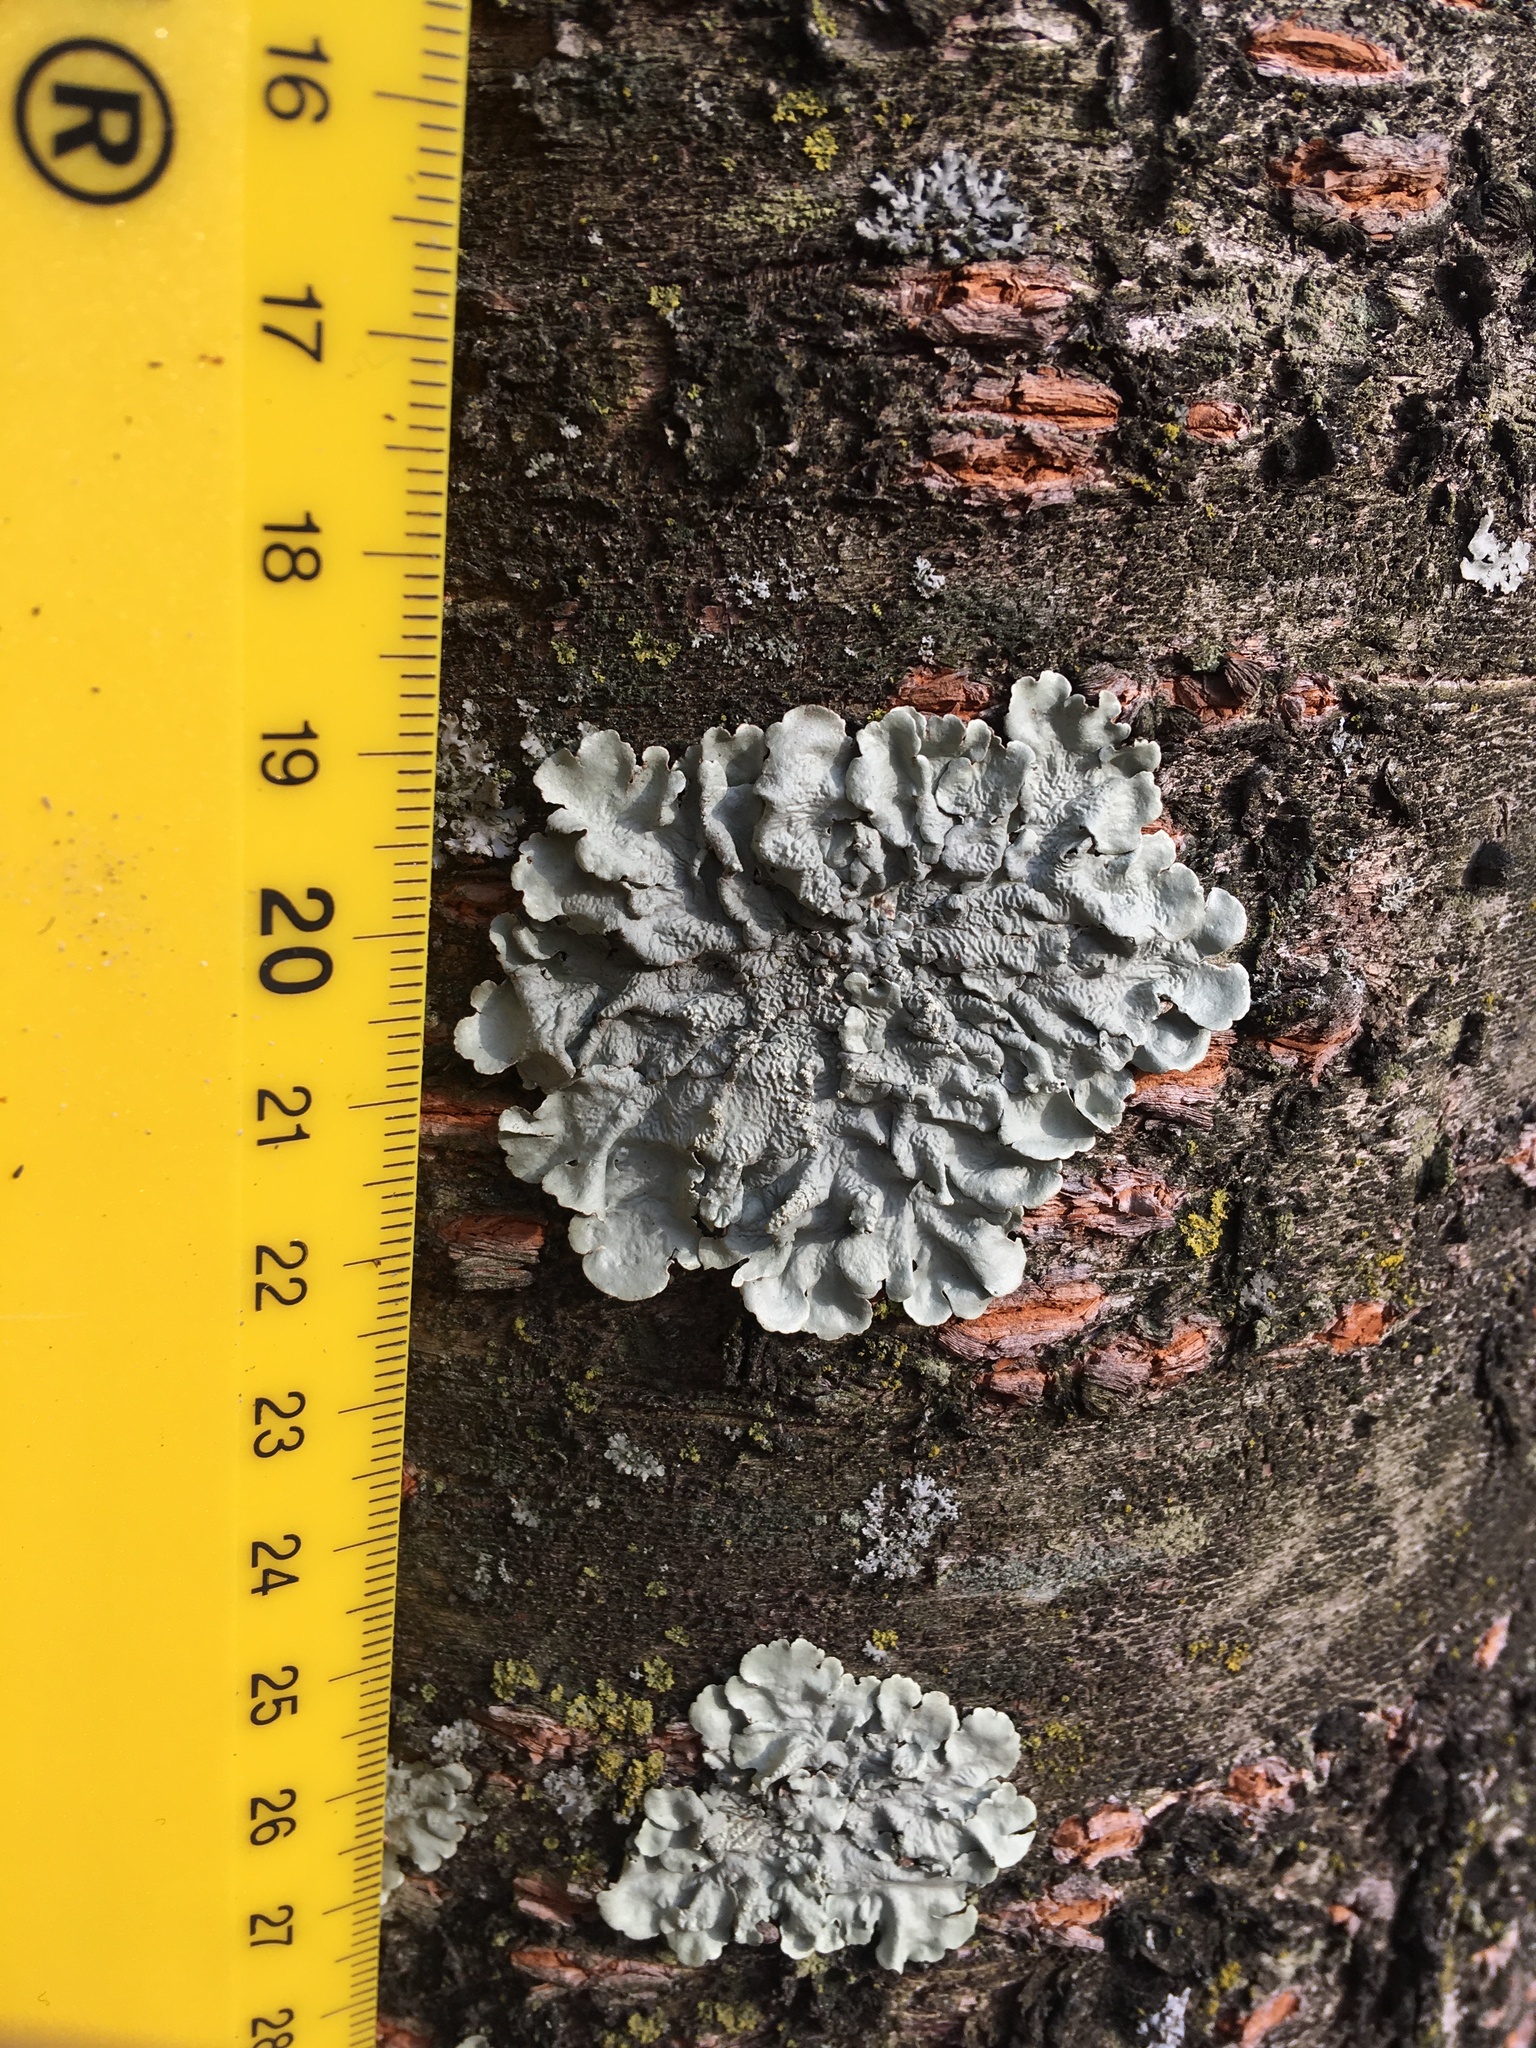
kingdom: Fungi
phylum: Ascomycota
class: Lecanoromycetes
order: Lecanorales
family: Parmeliaceae
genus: Flavoparmelia
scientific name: Flavoparmelia caperata
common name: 40-mile per hour lichen
